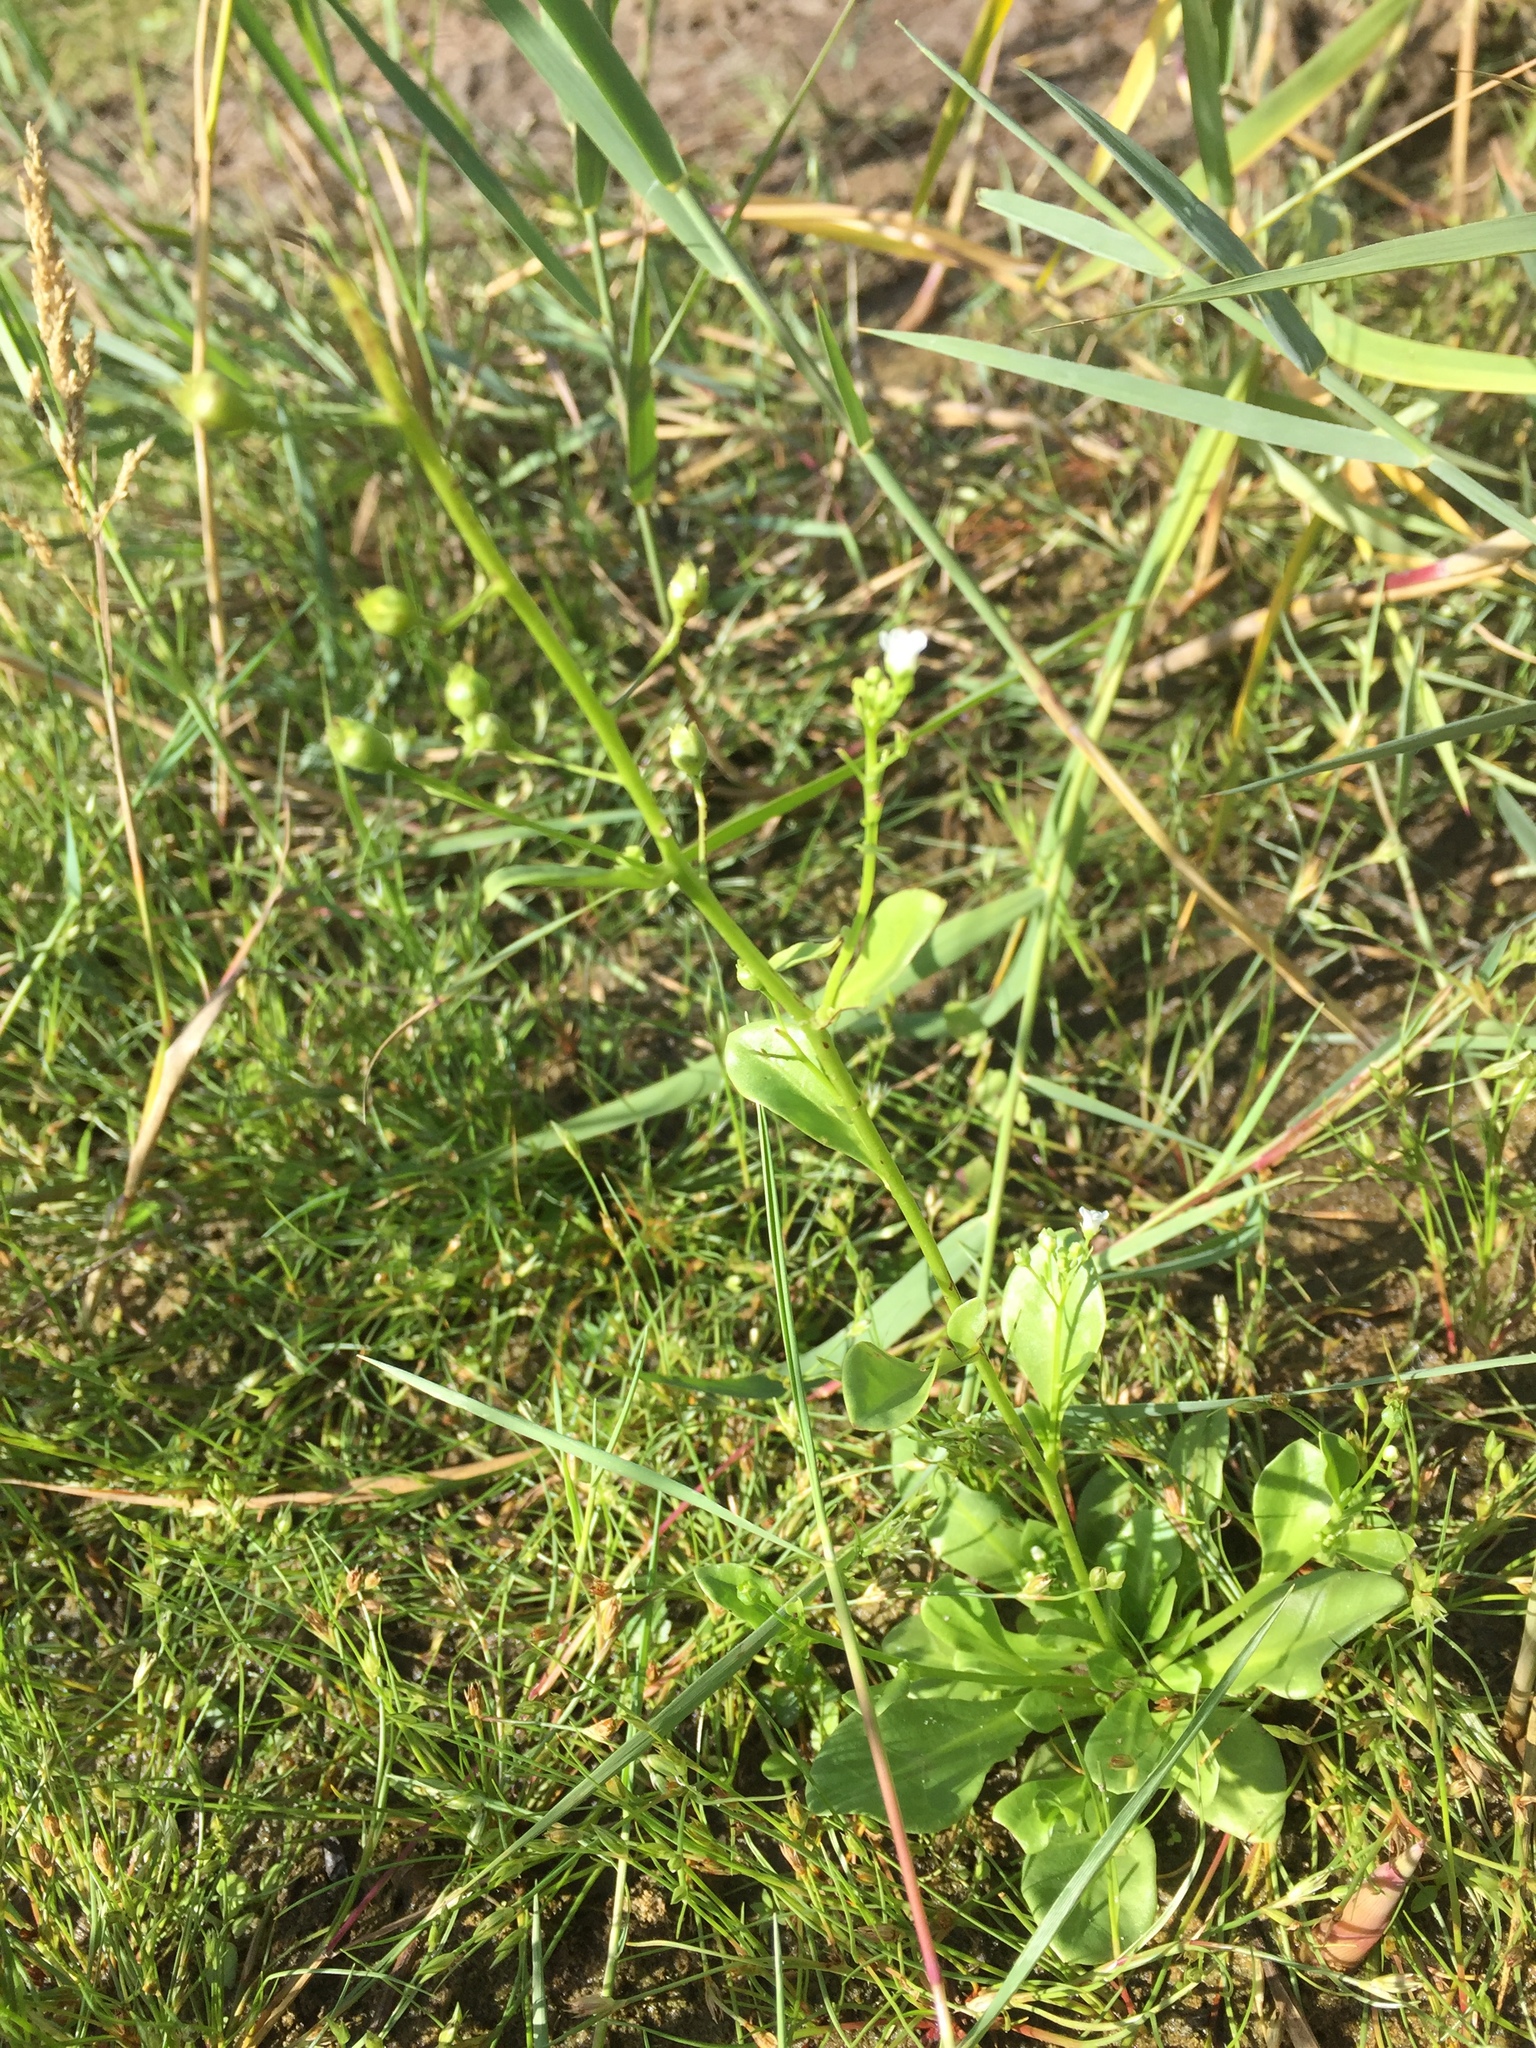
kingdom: Plantae
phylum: Tracheophyta
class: Magnoliopsida
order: Ericales
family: Primulaceae
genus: Samolus
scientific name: Samolus valerandi
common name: Brookweed
